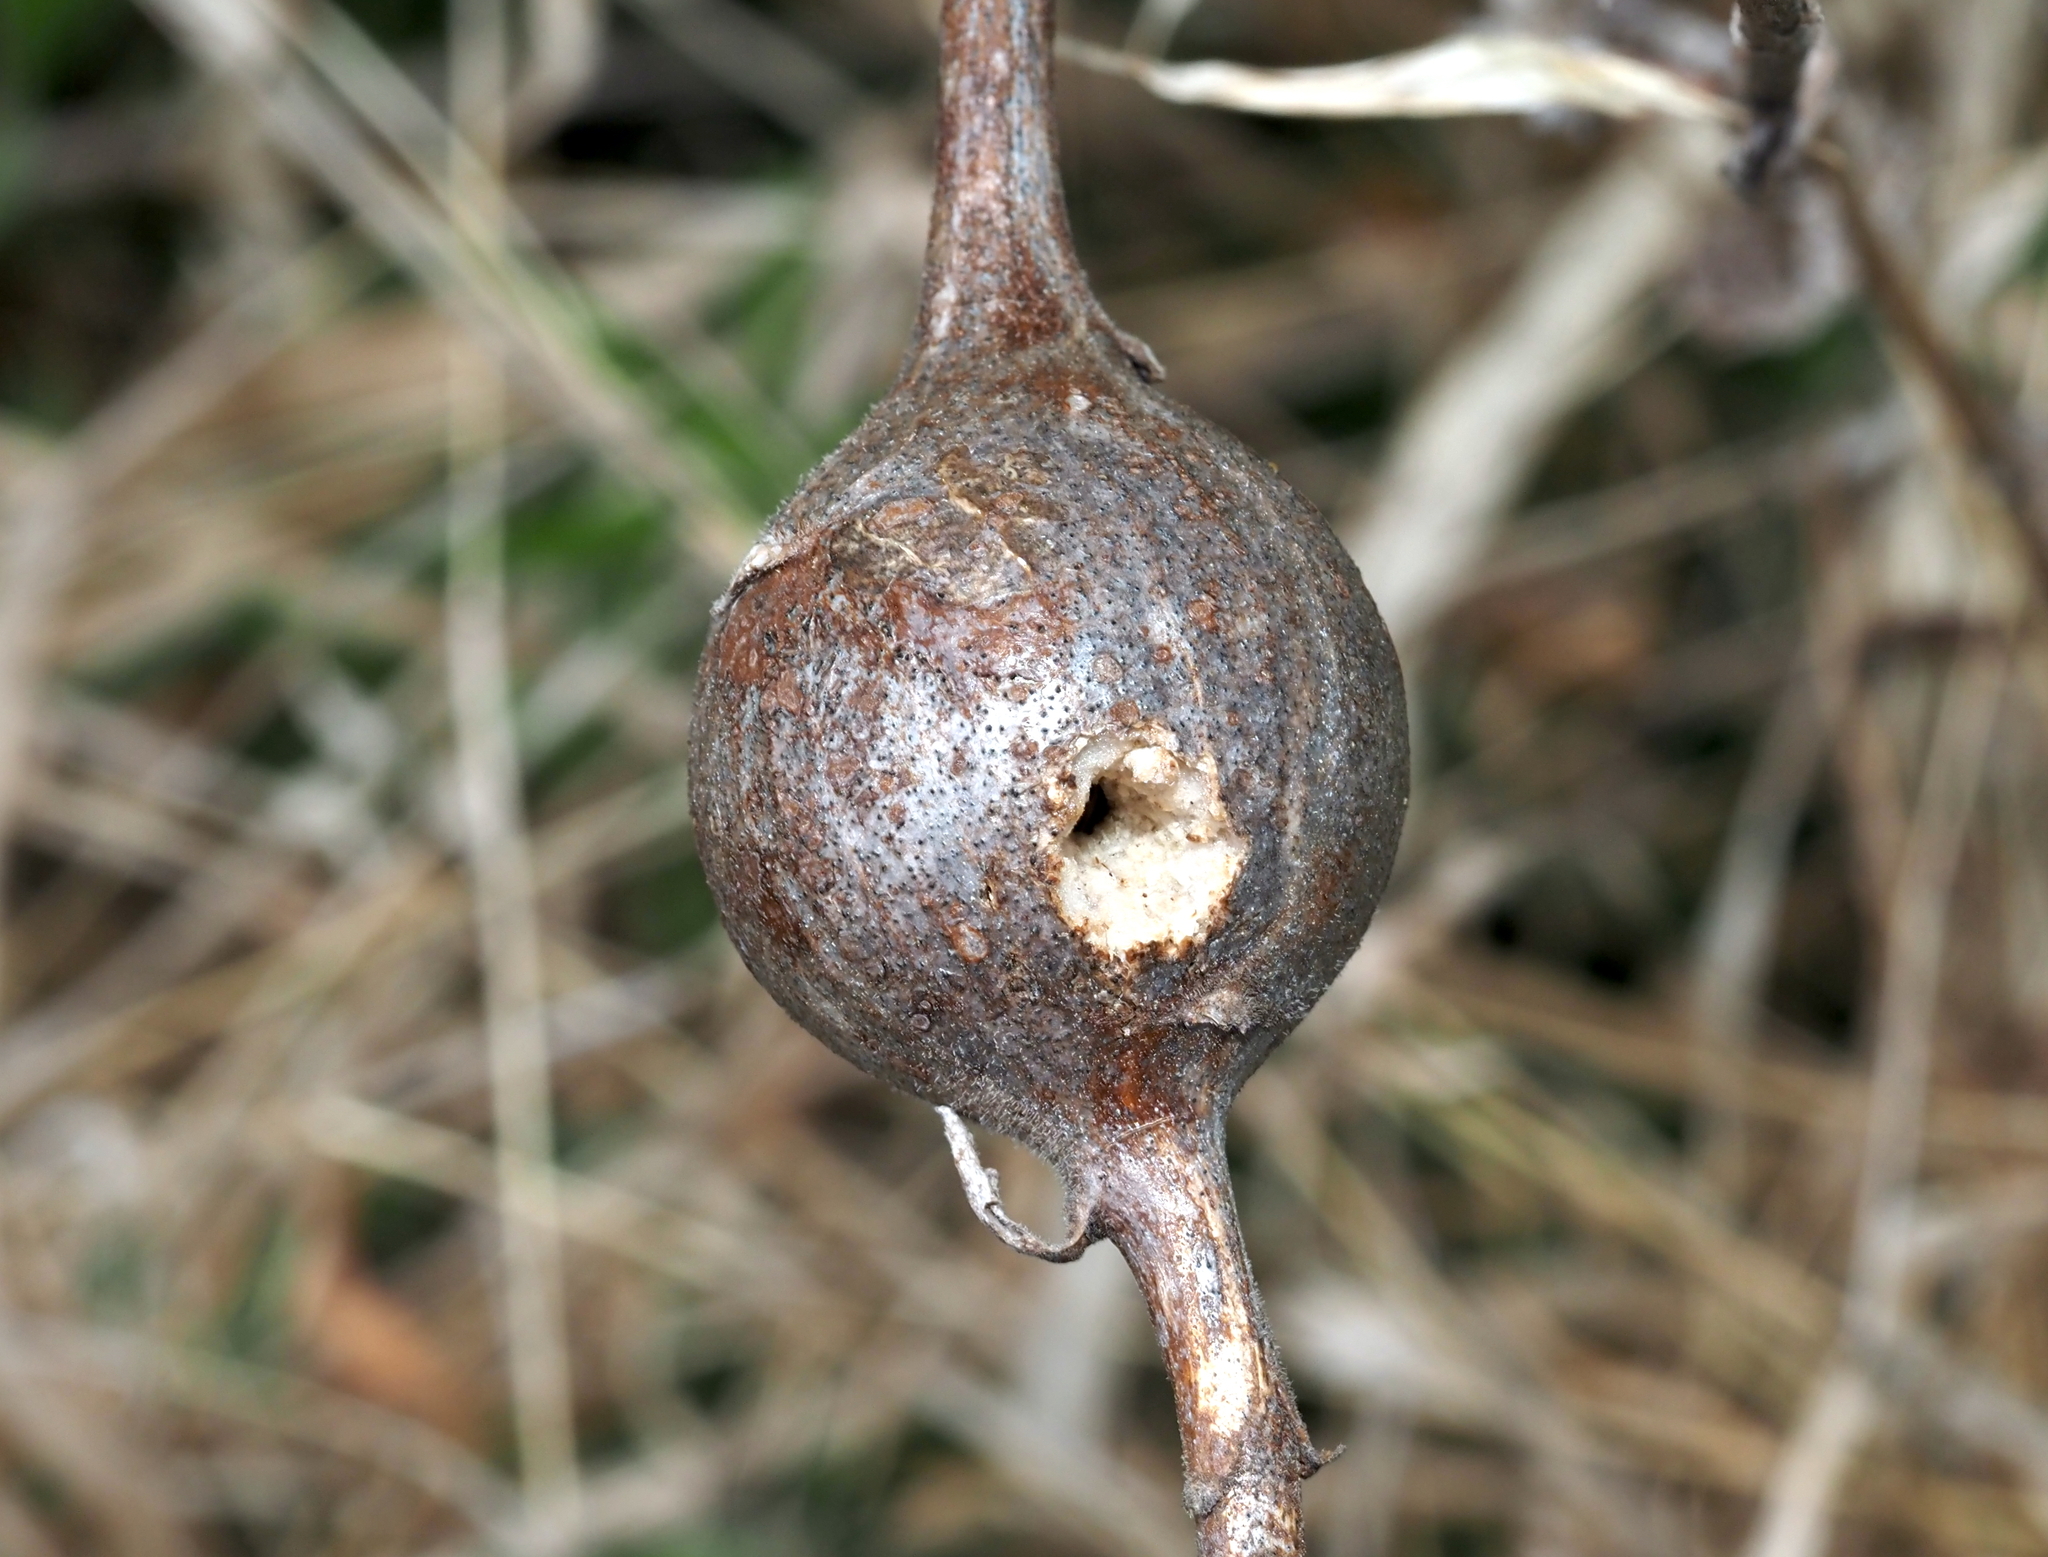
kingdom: Animalia
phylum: Arthropoda
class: Insecta
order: Diptera
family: Tephritidae
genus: Eurosta
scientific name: Eurosta solidaginis
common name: Goldenrod gall fly
